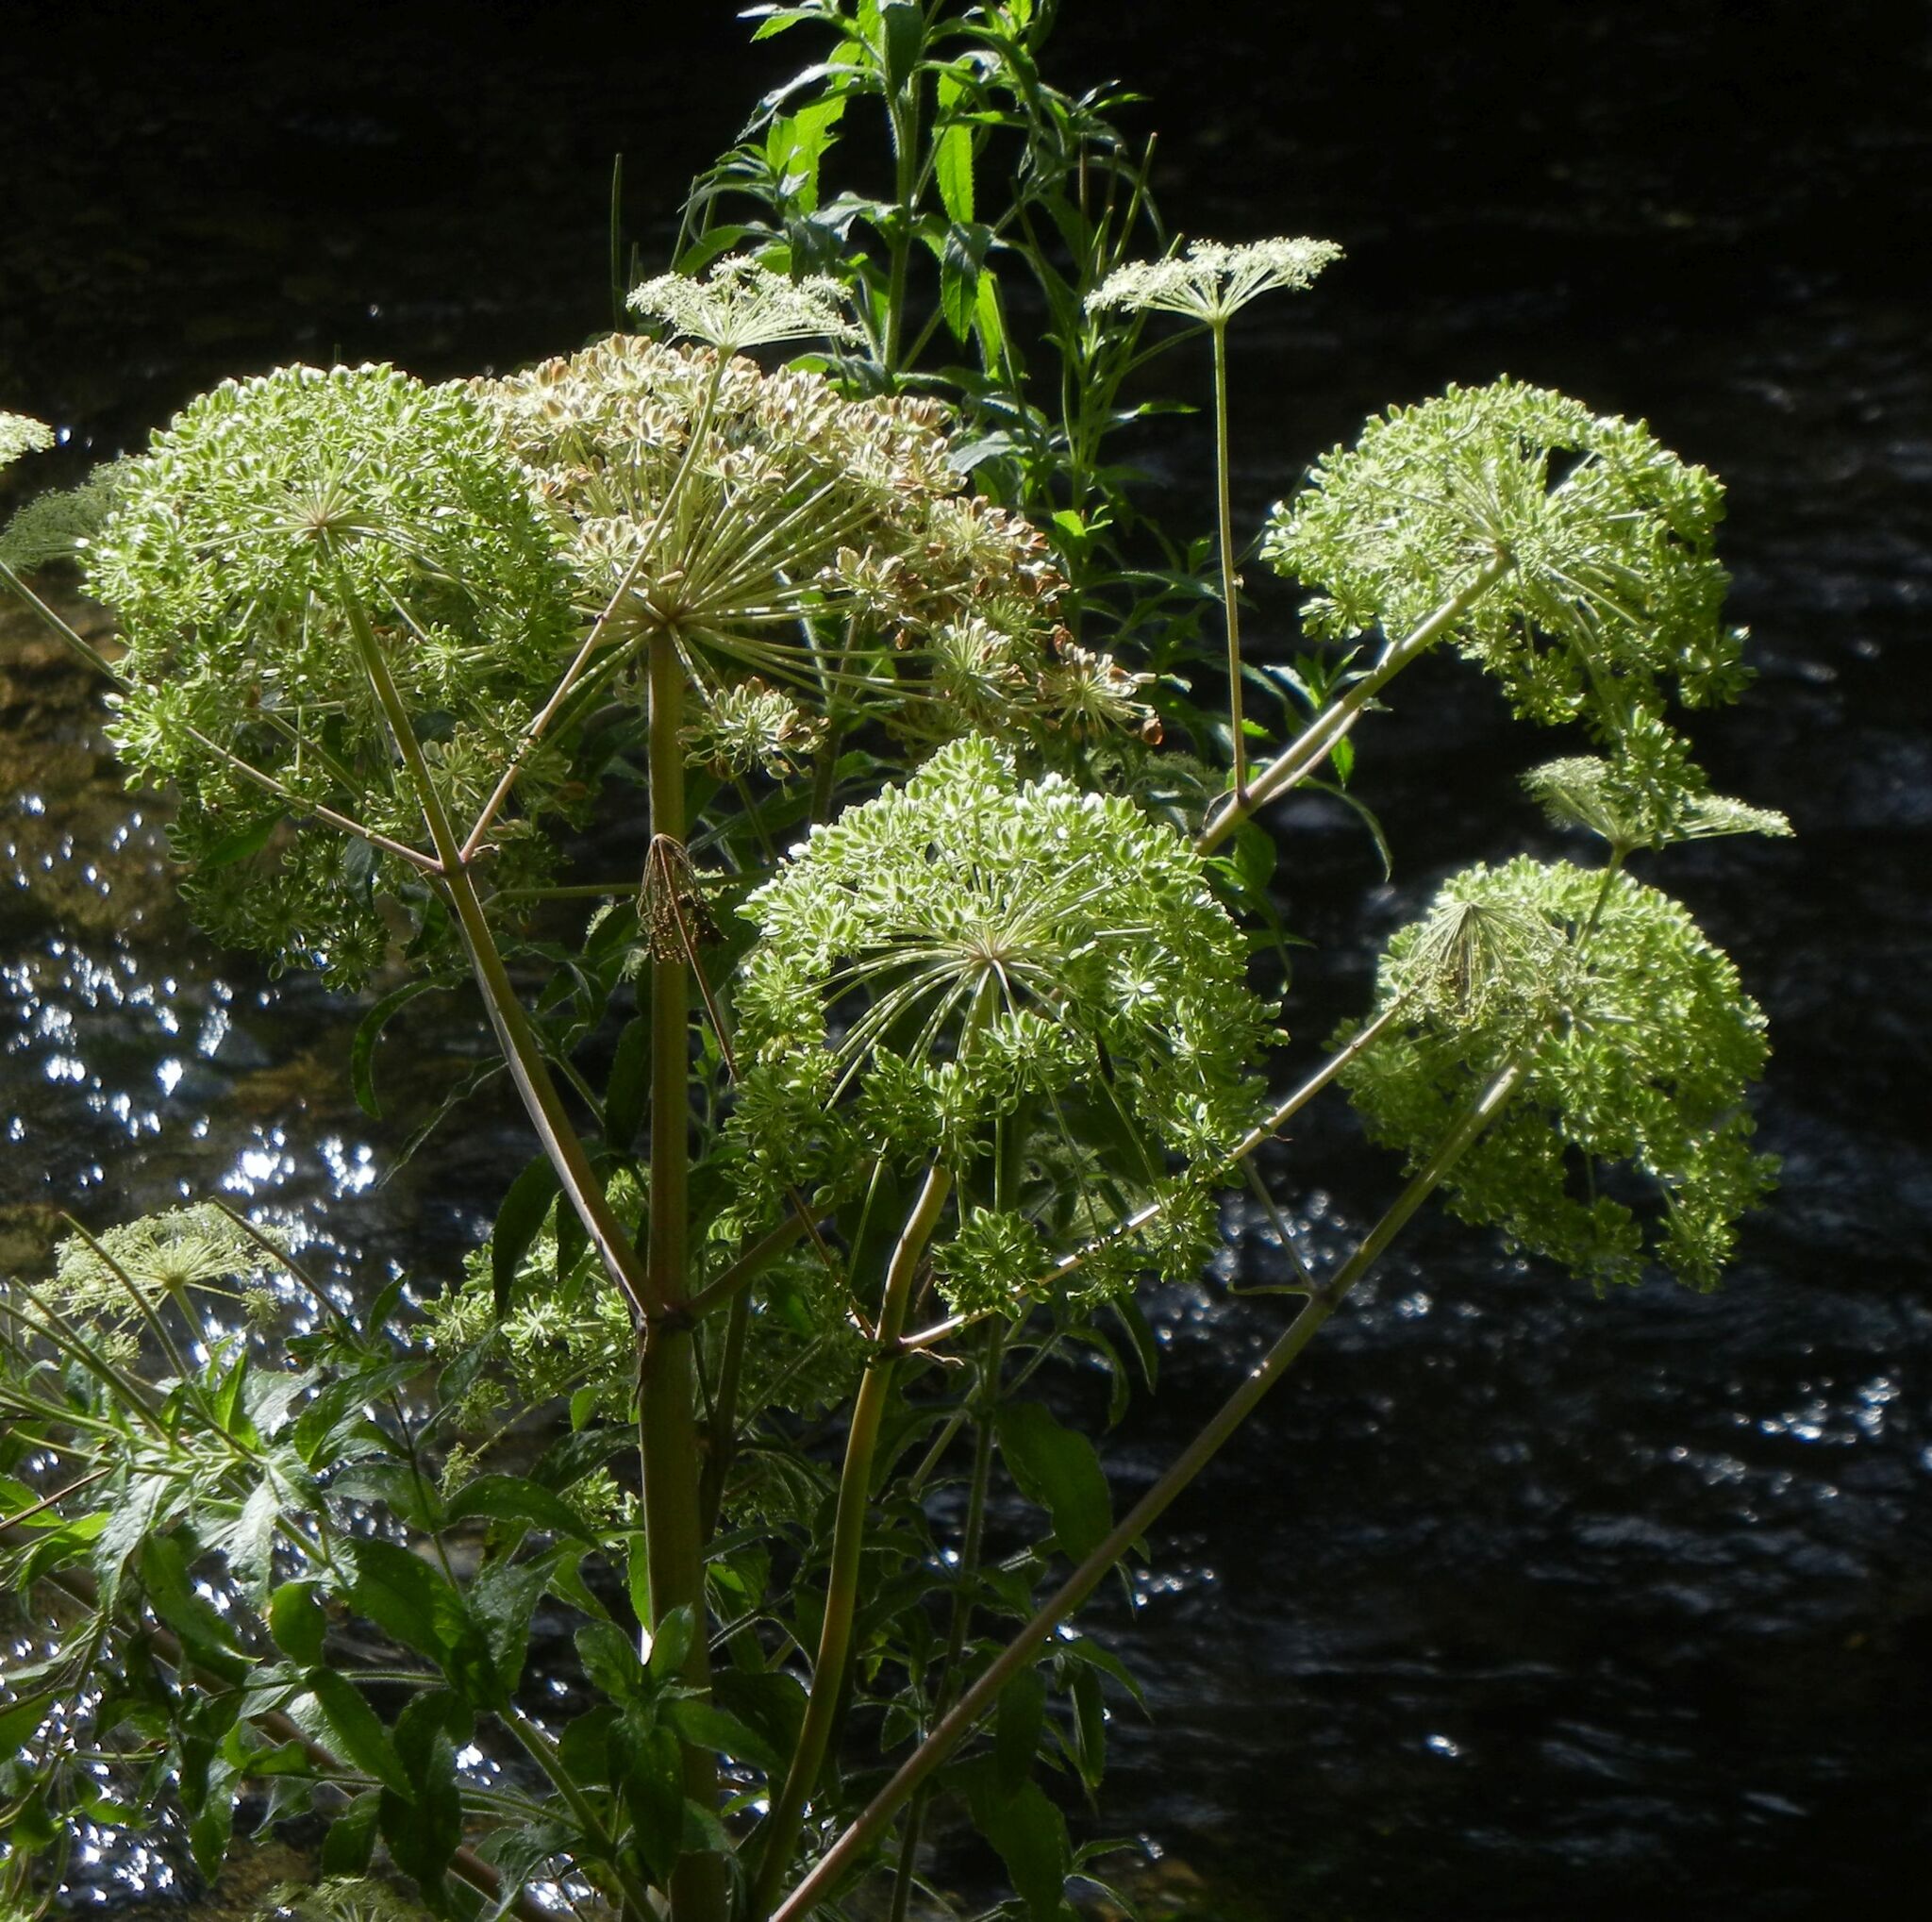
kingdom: Plantae
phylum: Tracheophyta
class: Magnoliopsida
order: Apiales
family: Apiaceae
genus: Angelica
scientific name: Angelica sylvestris
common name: Wild angelica
